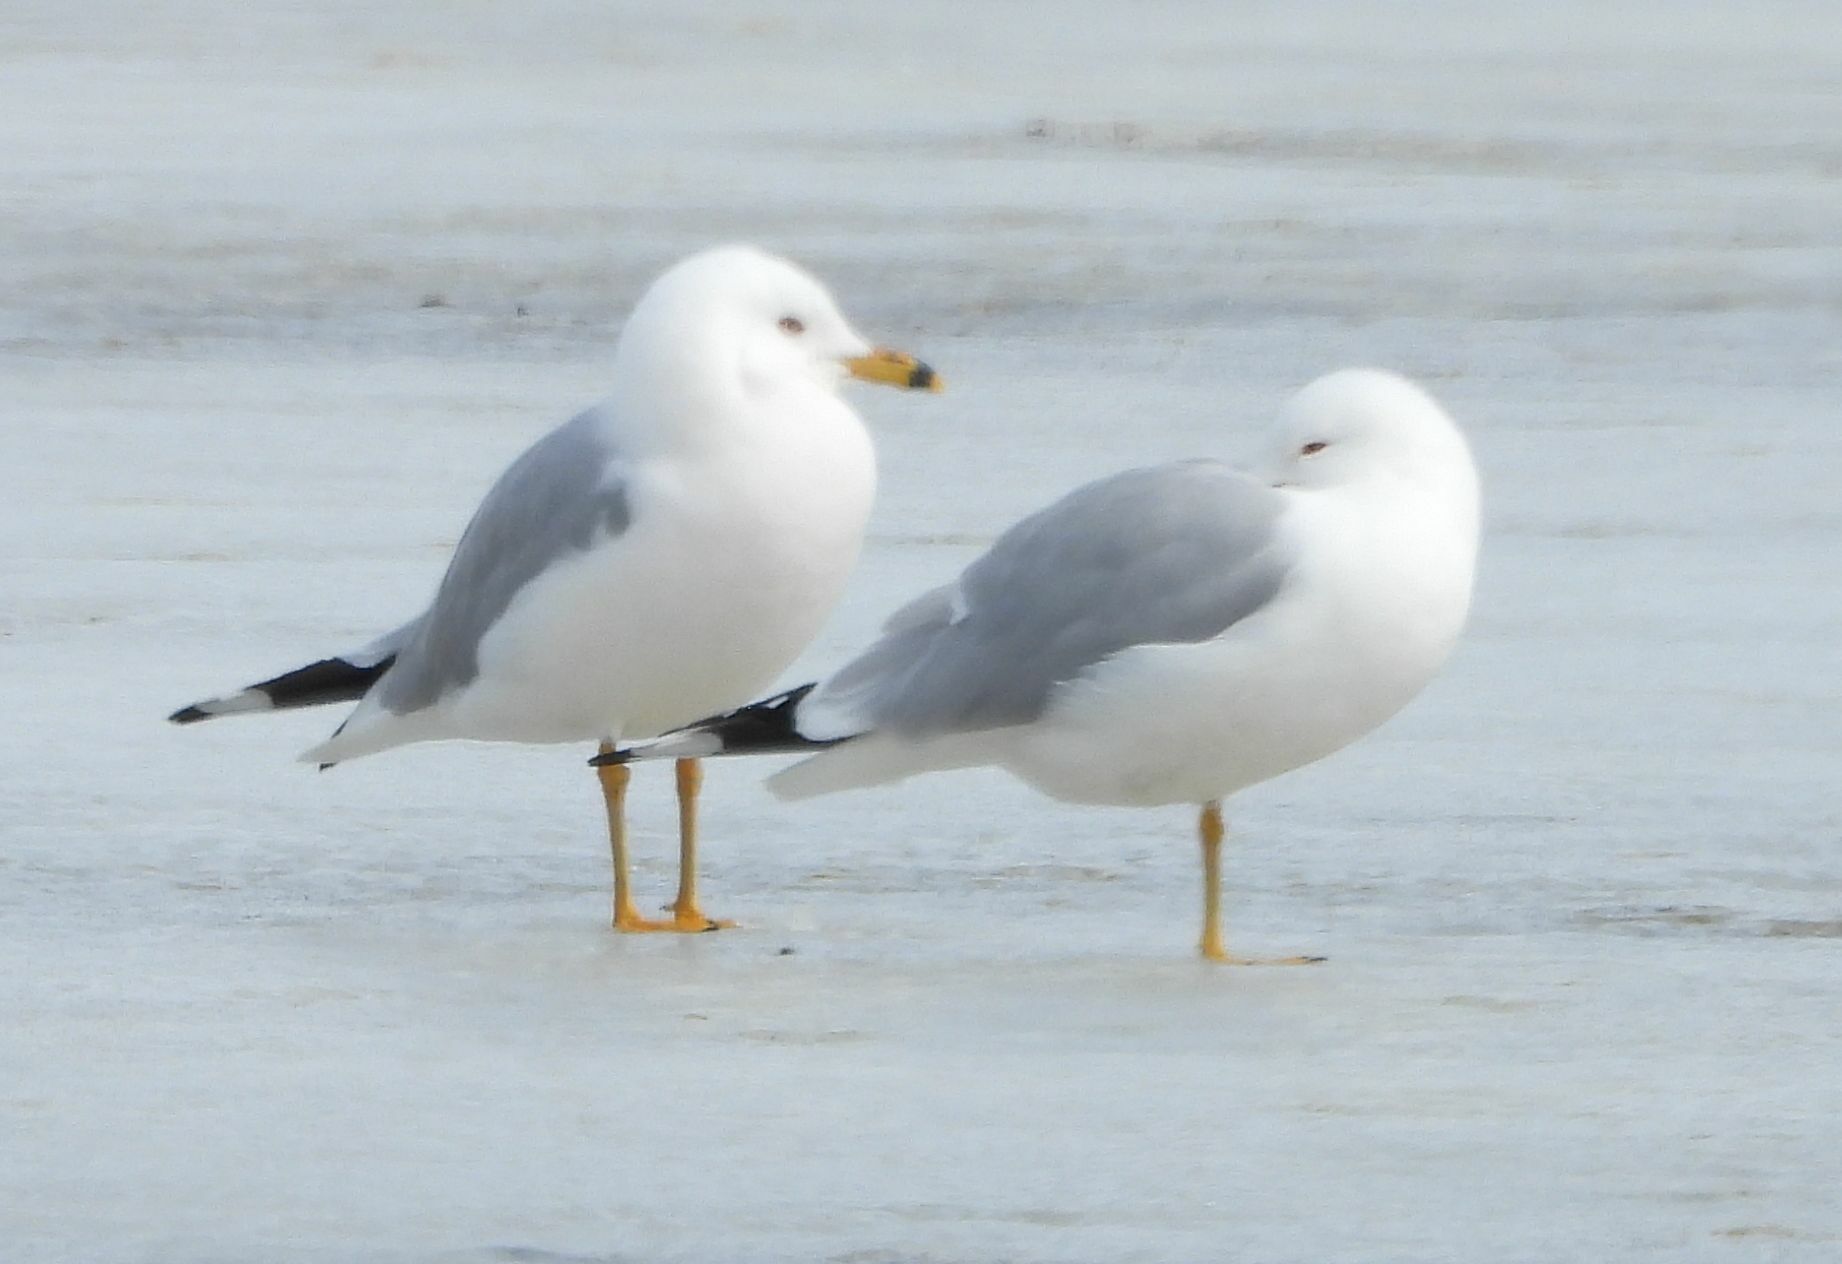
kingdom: Animalia
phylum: Chordata
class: Aves
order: Charadriiformes
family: Laridae
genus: Larus
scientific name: Larus delawarensis
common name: Ring-billed gull
